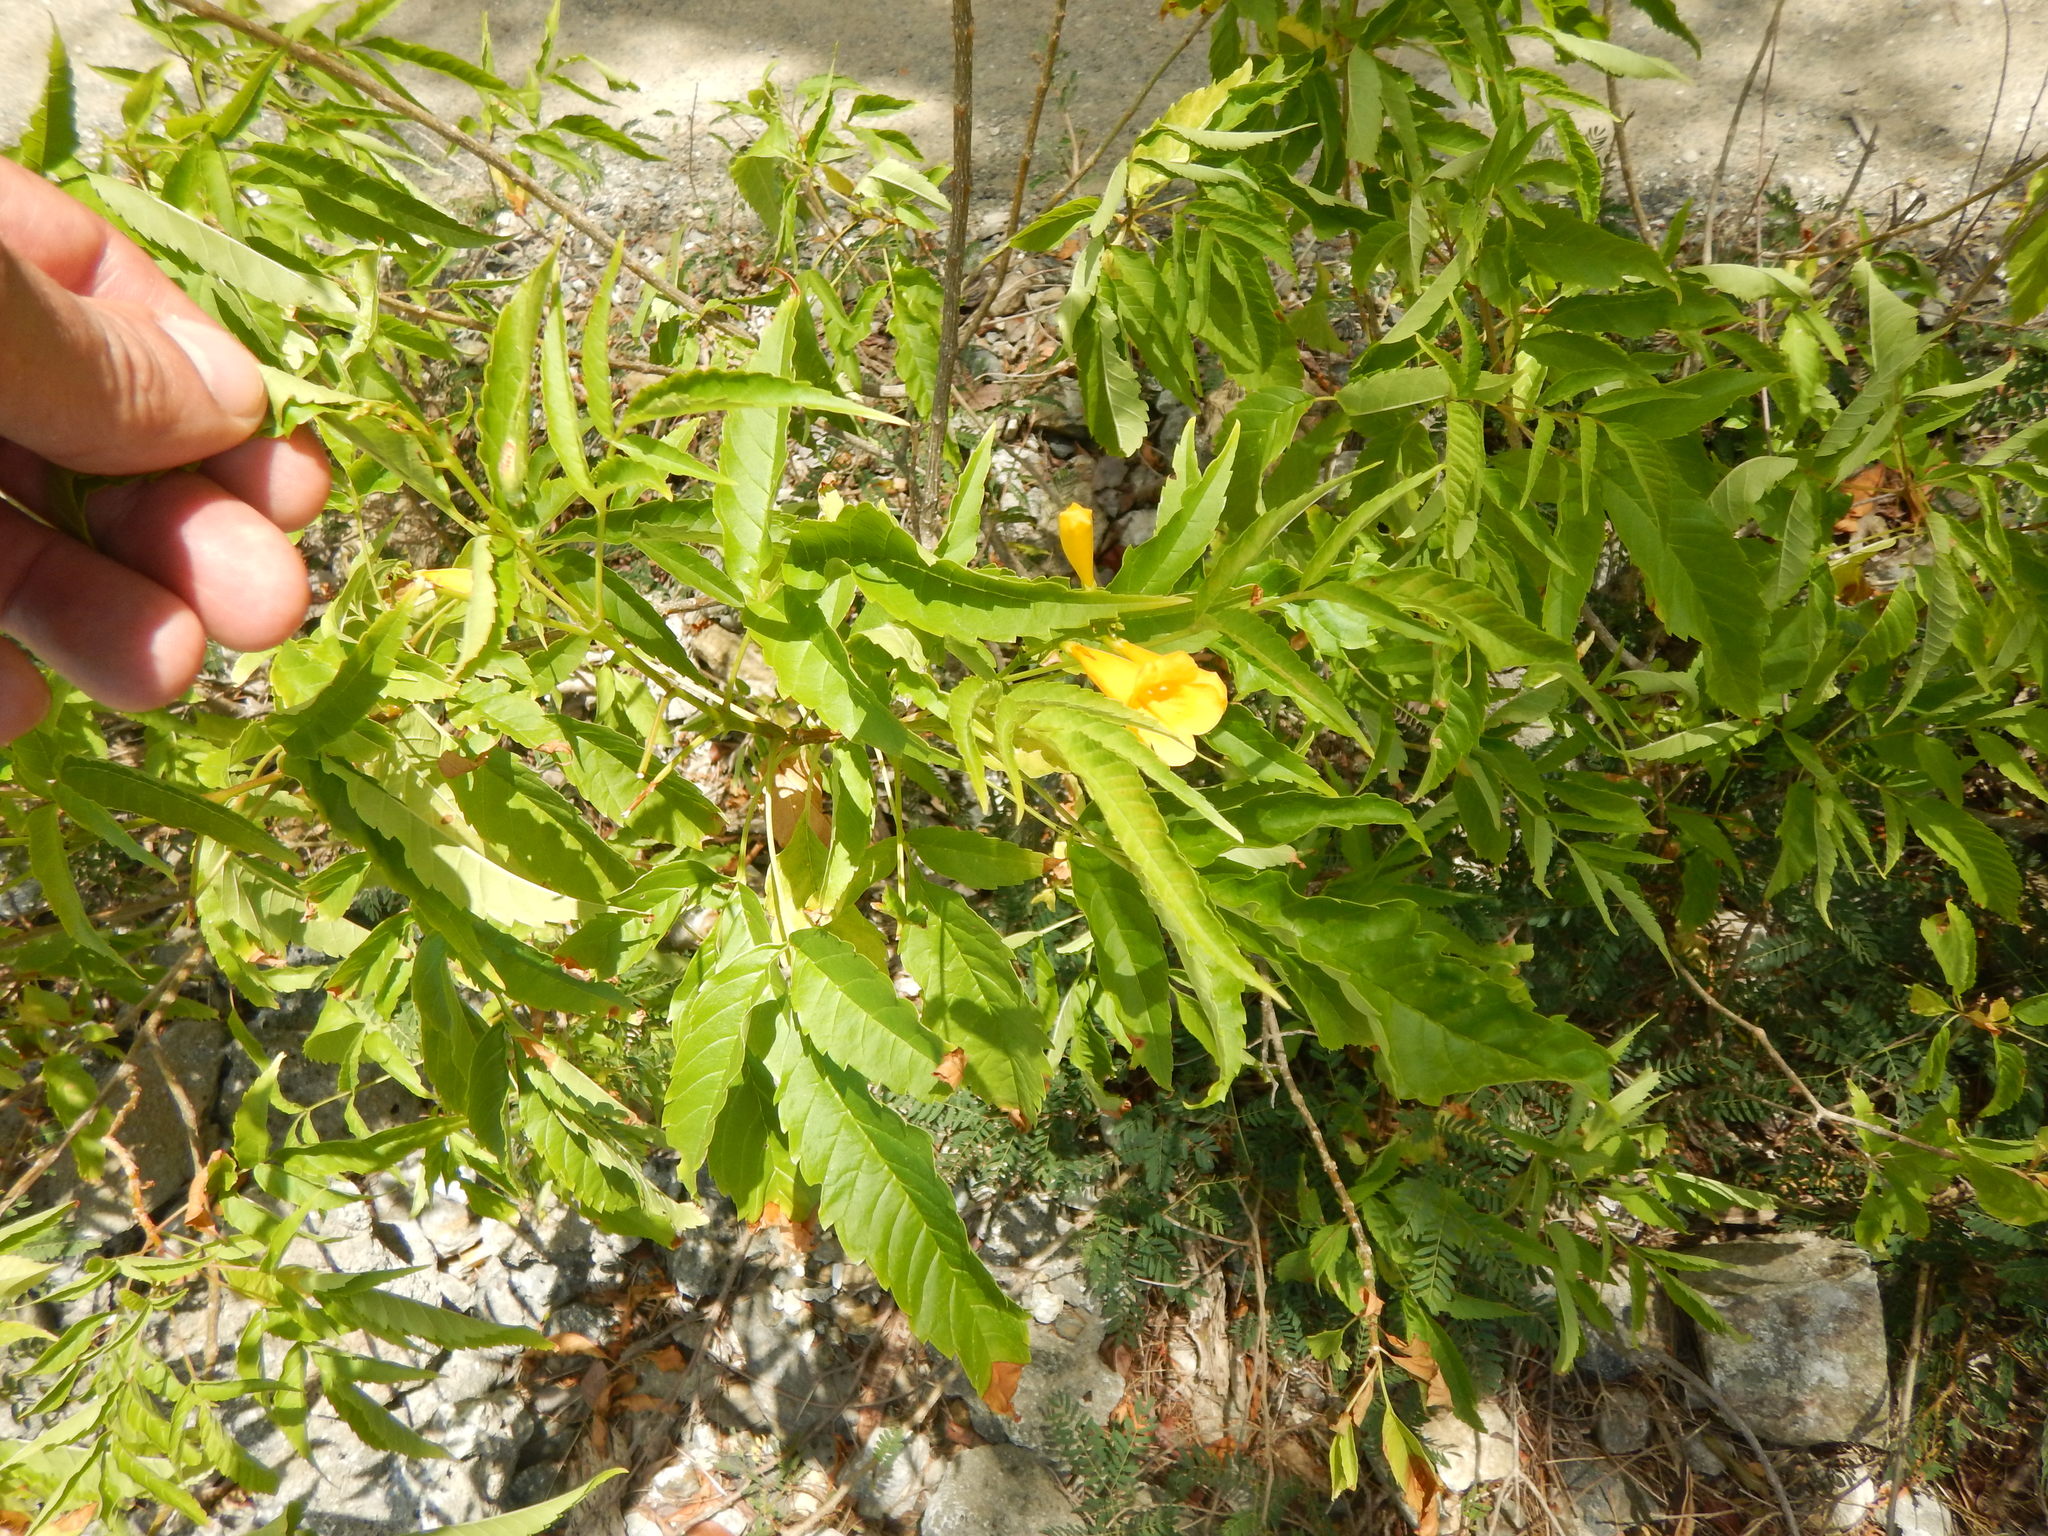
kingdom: Plantae
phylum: Tracheophyta
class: Magnoliopsida
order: Lamiales
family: Bignoniaceae
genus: Tecoma
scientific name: Tecoma stans
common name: Yellow trumpetbush
